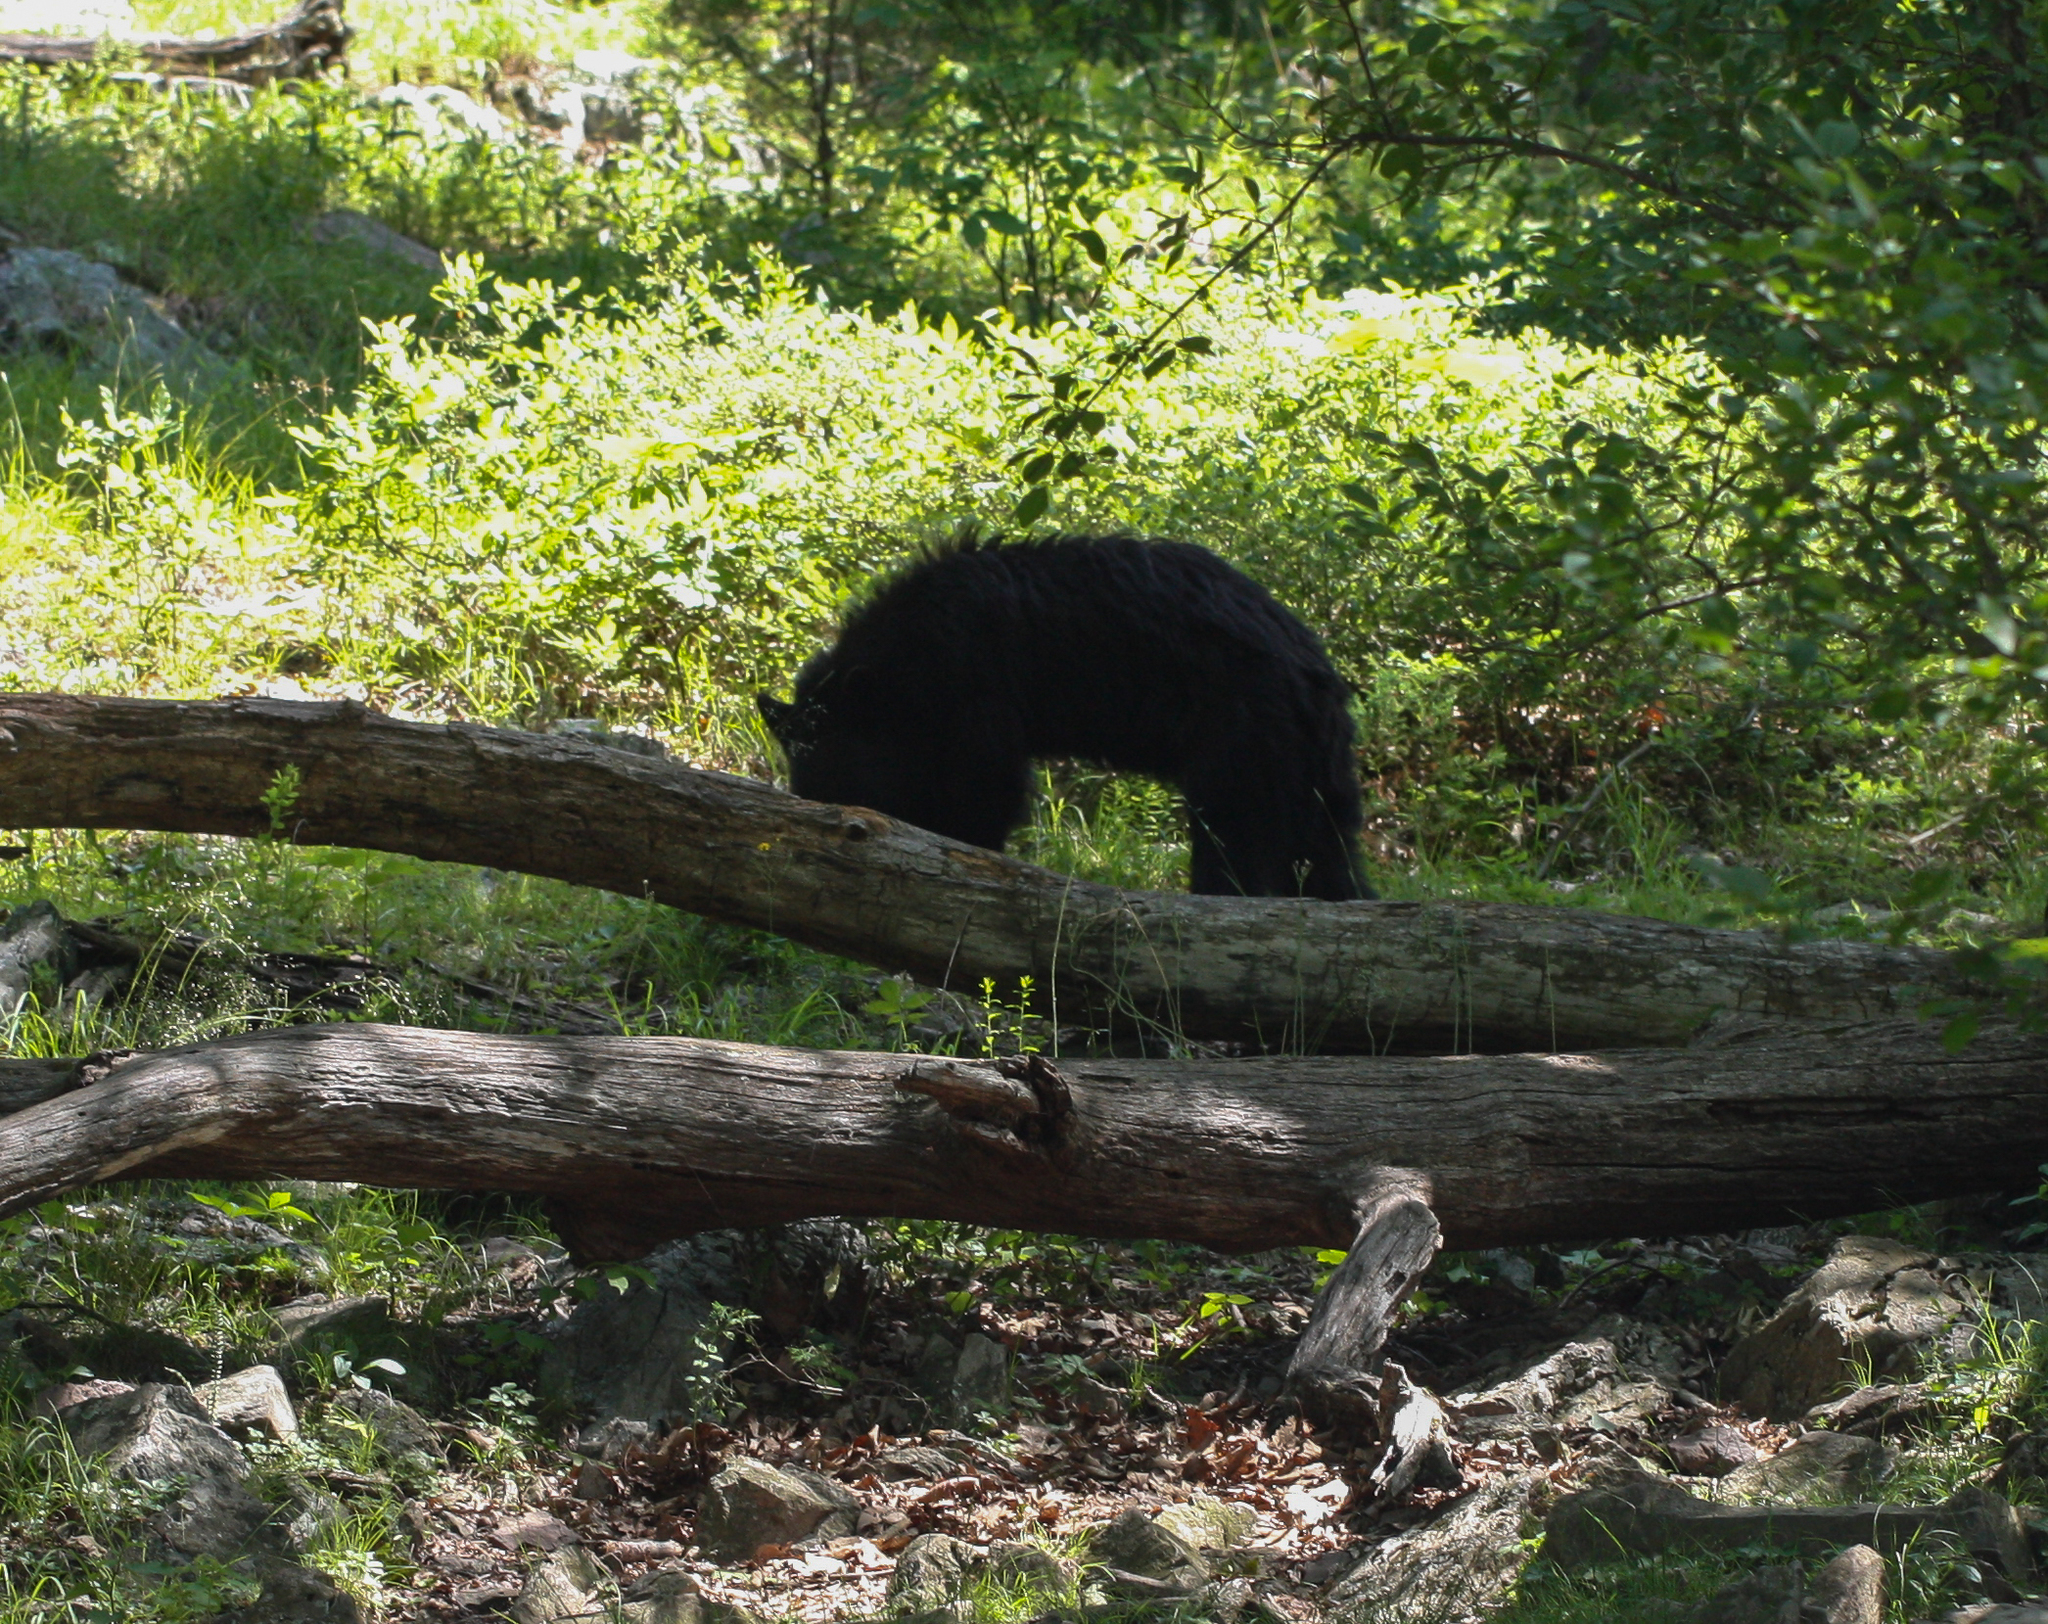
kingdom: Animalia
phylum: Chordata
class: Mammalia
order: Carnivora
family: Ursidae
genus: Ursus
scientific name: Ursus americanus
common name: American black bear
